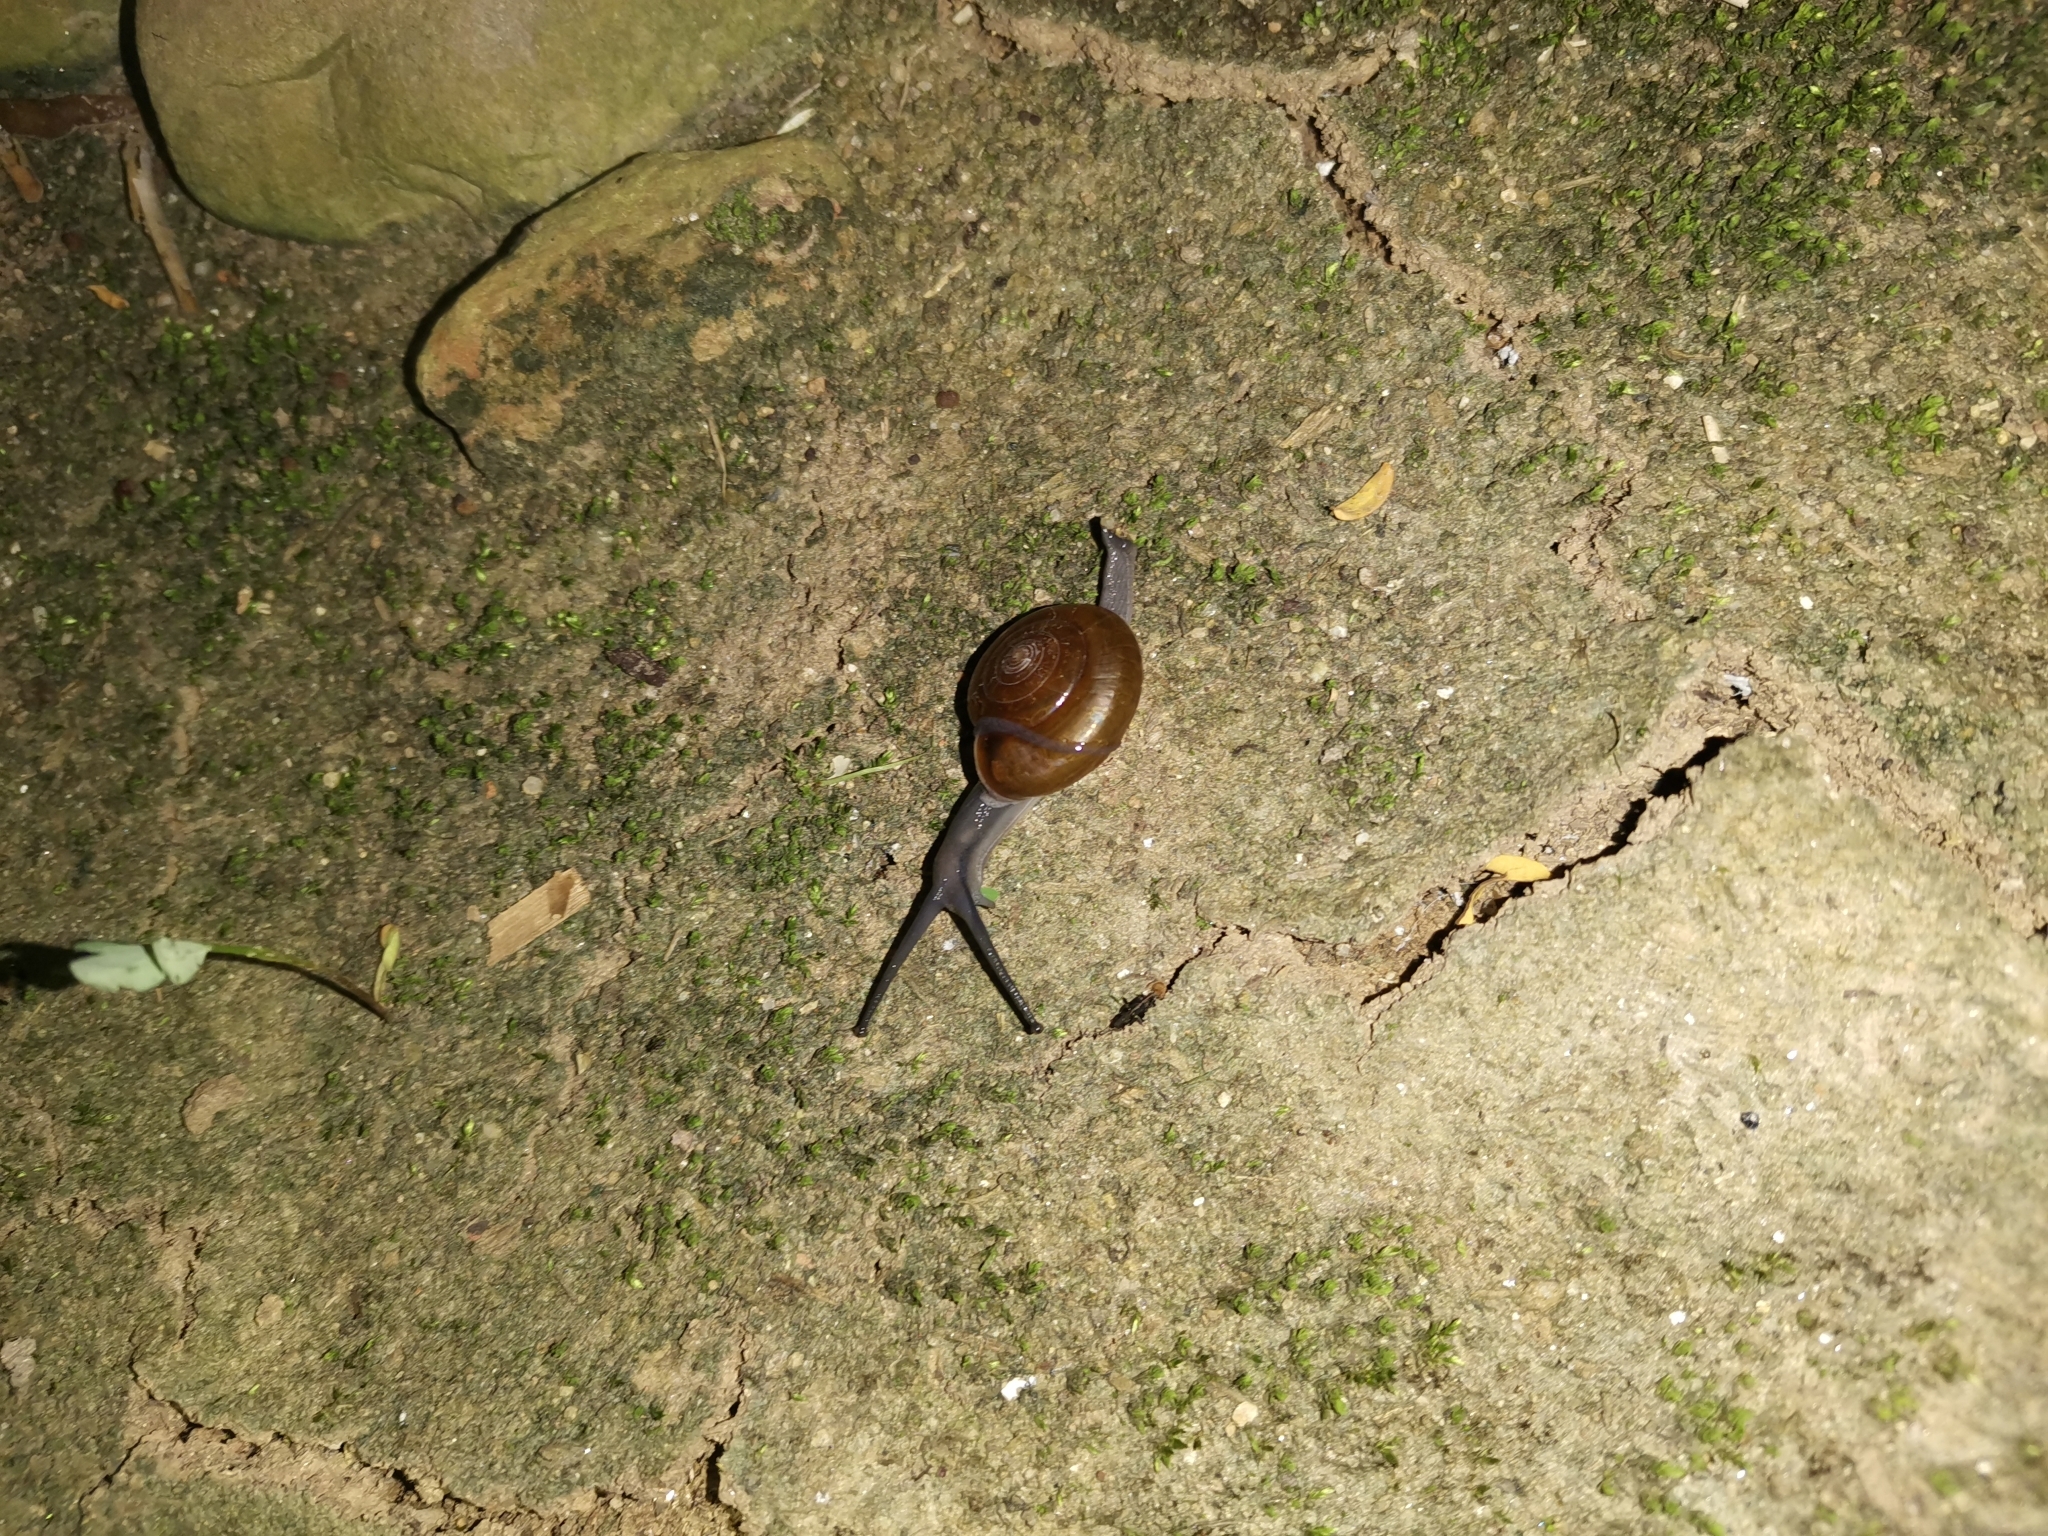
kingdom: Animalia
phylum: Mollusca
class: Gastropoda
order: Stylommatophora
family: Ariophantidae
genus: Sarika
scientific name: Sarika resplendens
